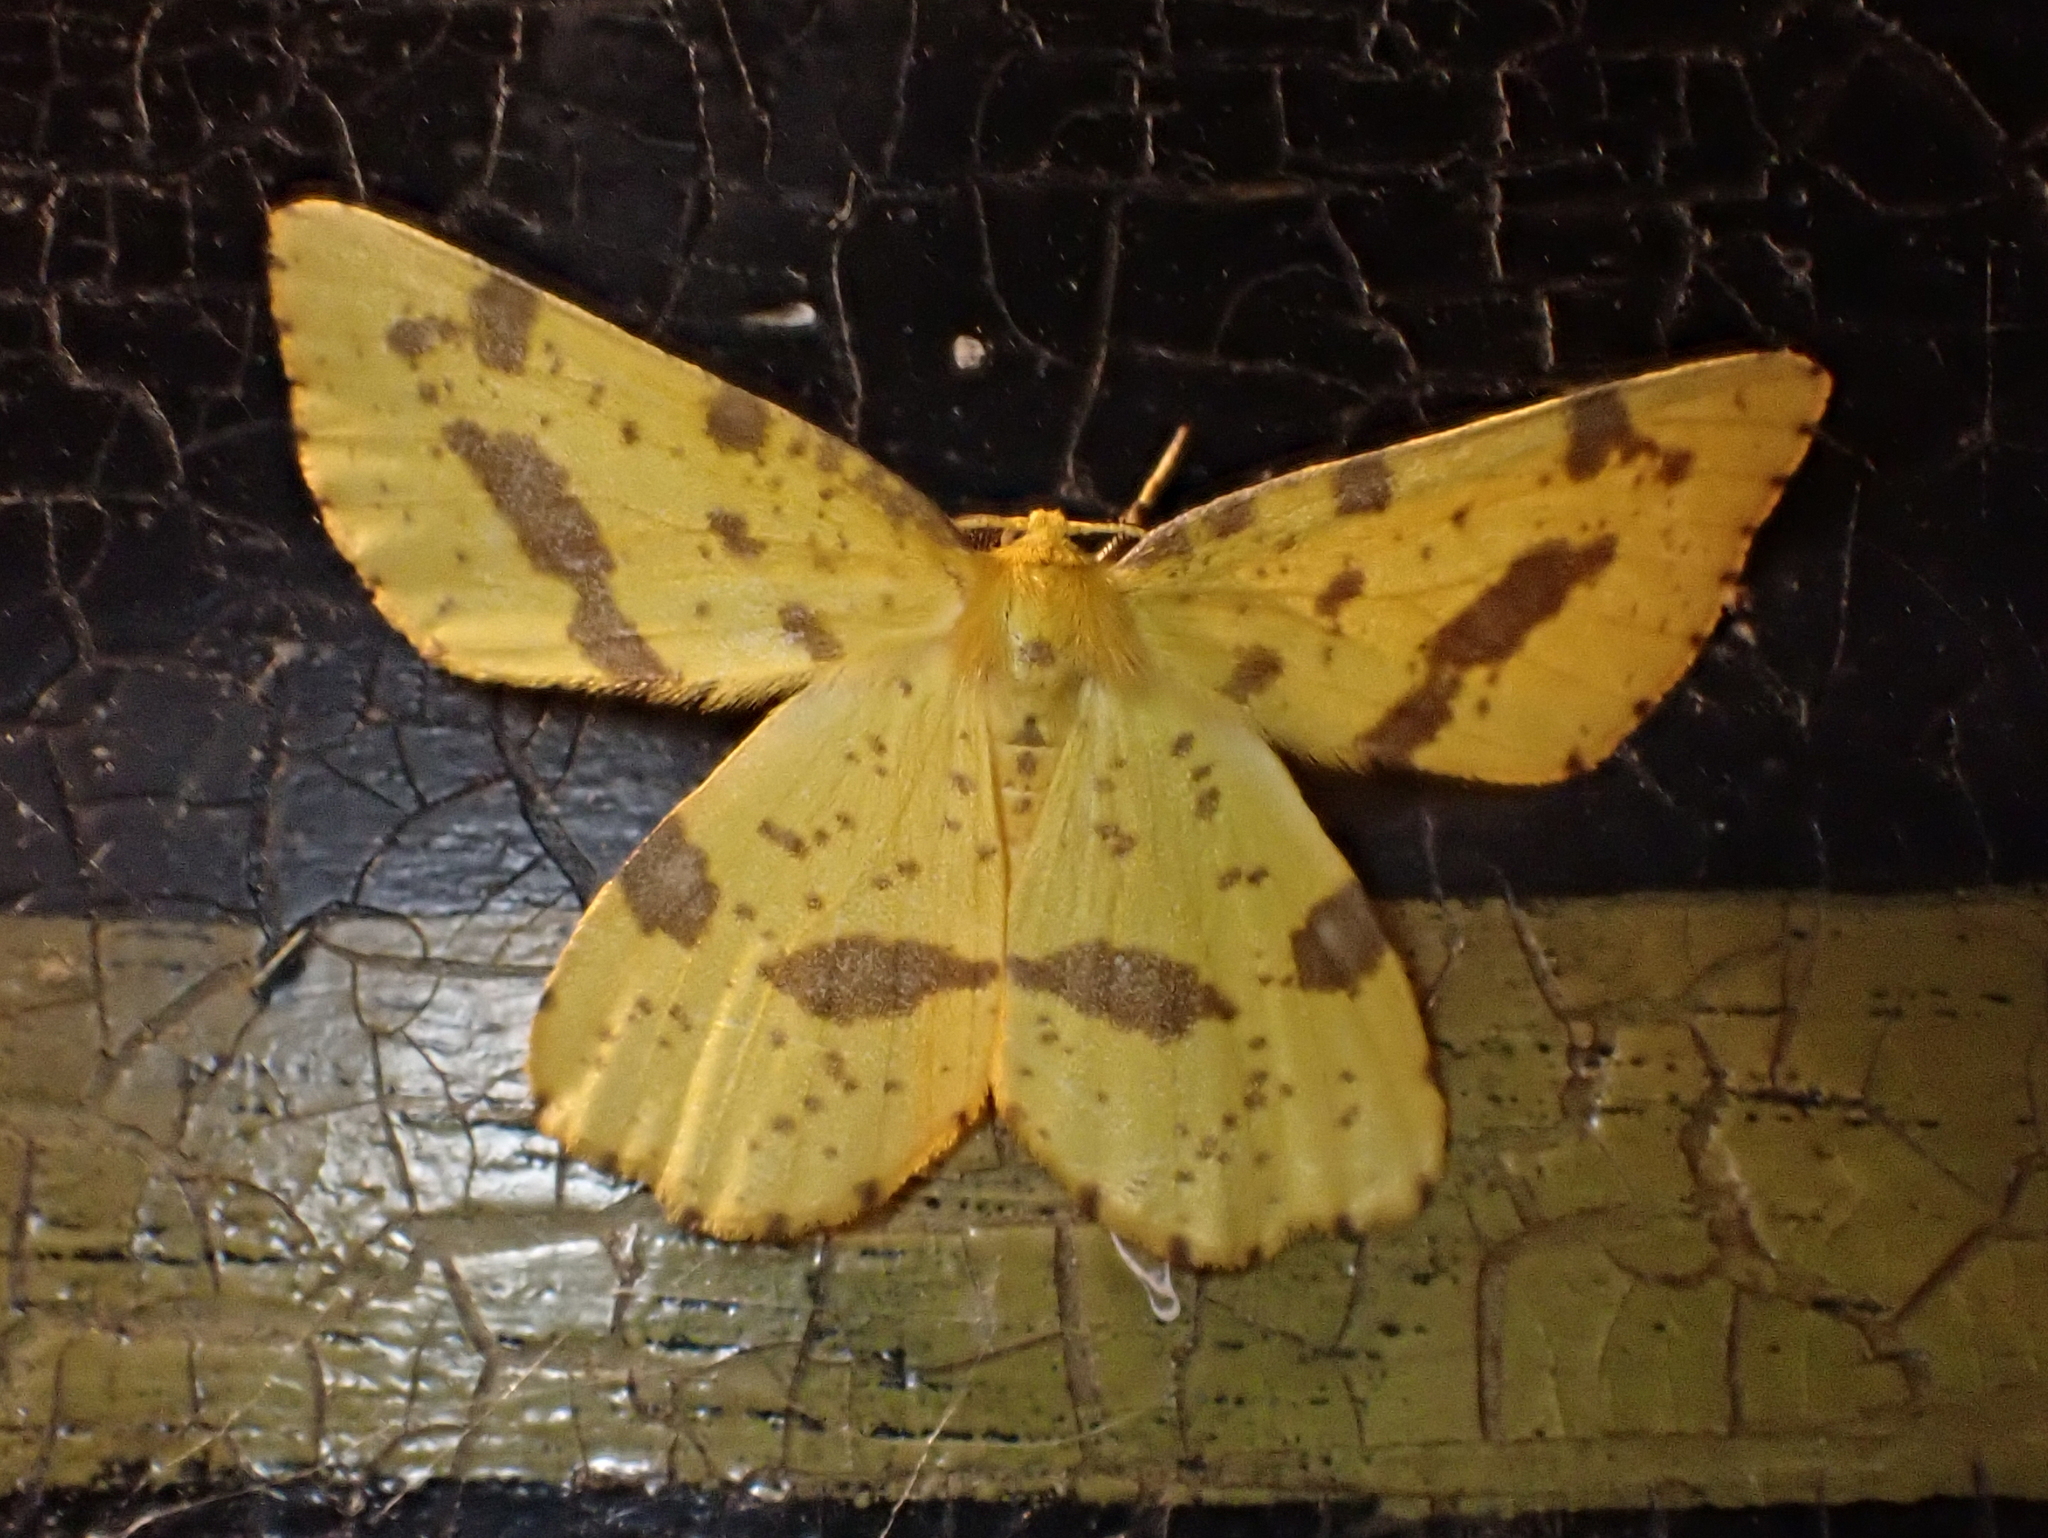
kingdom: Animalia
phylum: Arthropoda
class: Insecta
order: Lepidoptera
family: Geometridae
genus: Xanthotype
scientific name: Xanthotype
